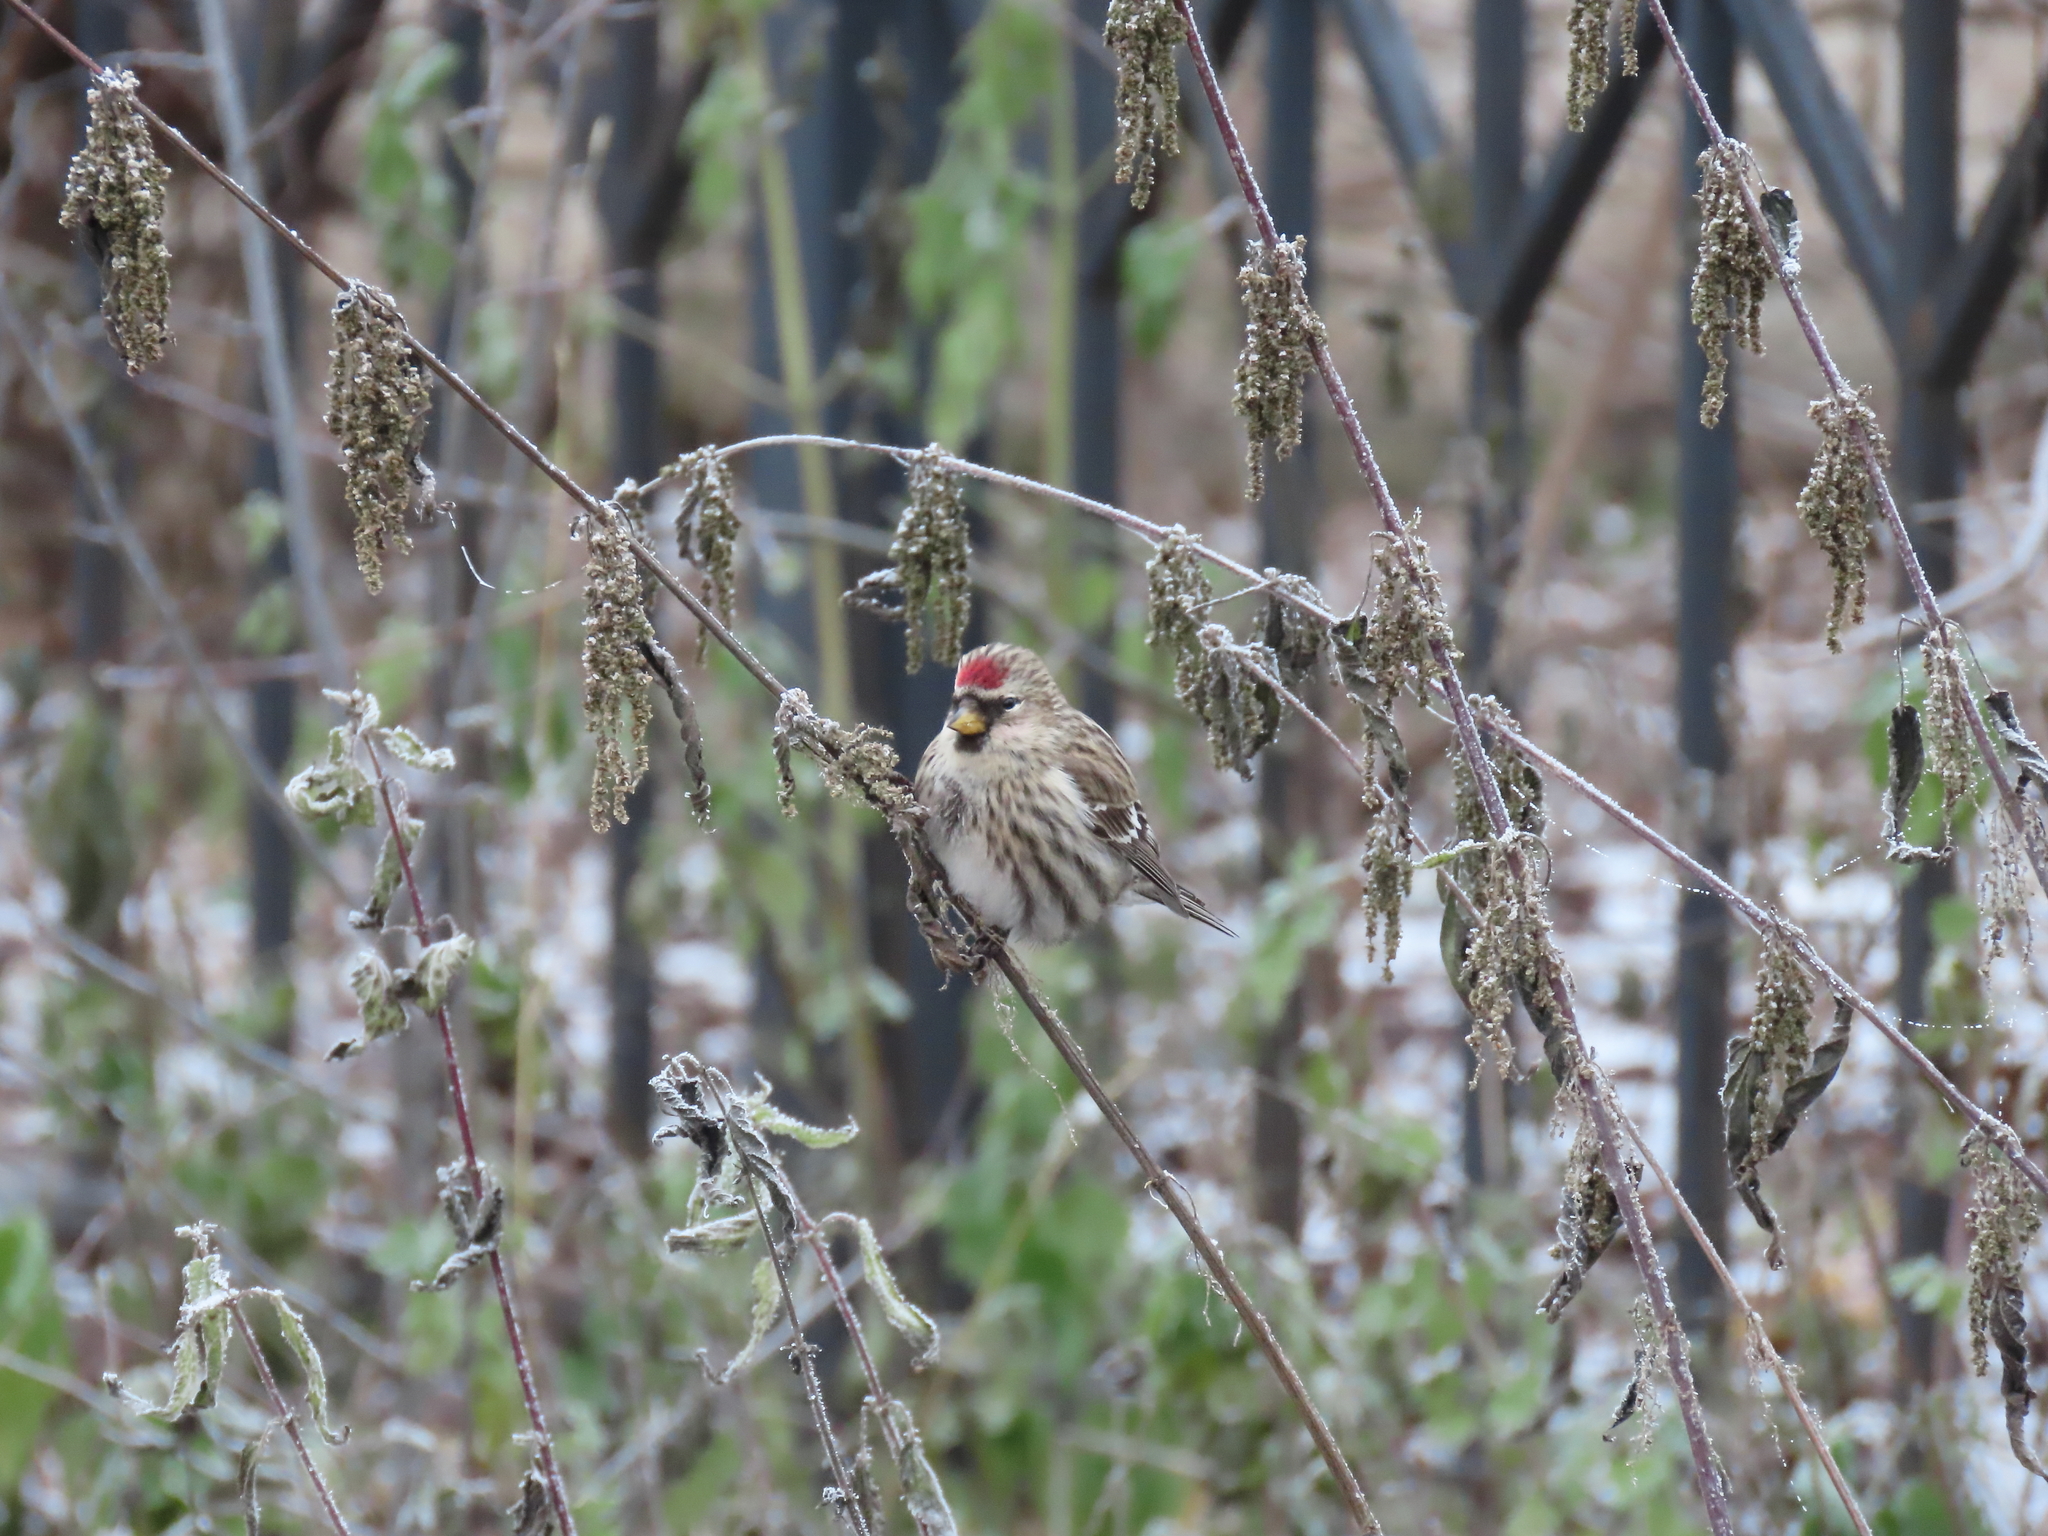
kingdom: Animalia
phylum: Chordata
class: Aves
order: Passeriformes
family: Fringillidae
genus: Acanthis
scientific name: Acanthis flammea
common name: Common redpoll
